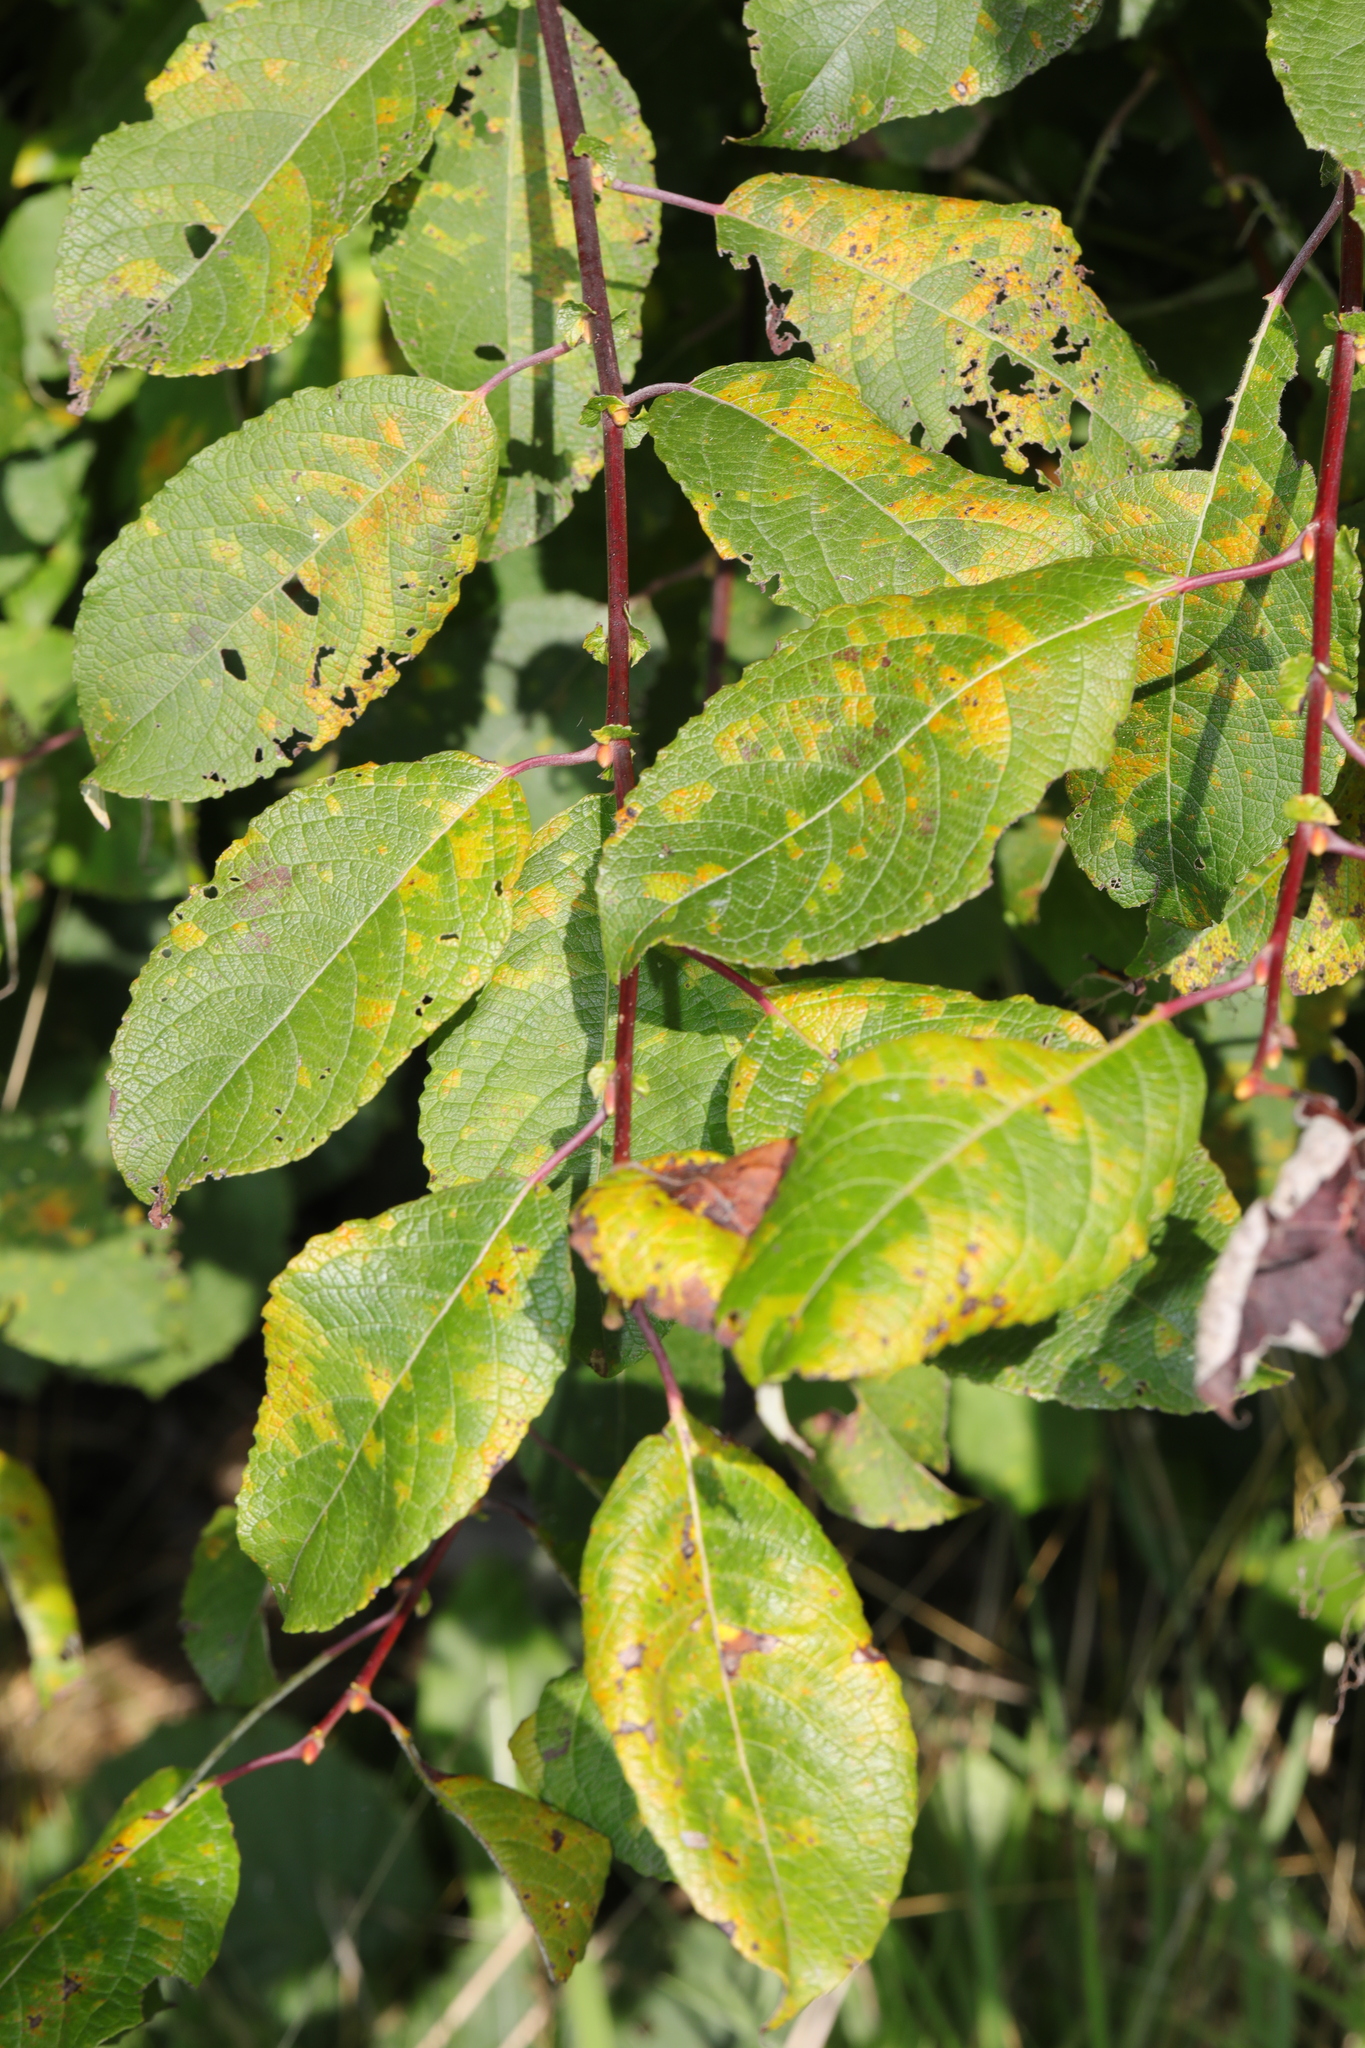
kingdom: Plantae
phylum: Tracheophyta
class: Magnoliopsida
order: Malpighiales
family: Salicaceae
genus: Salix
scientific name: Salix caprea
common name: Goat willow
